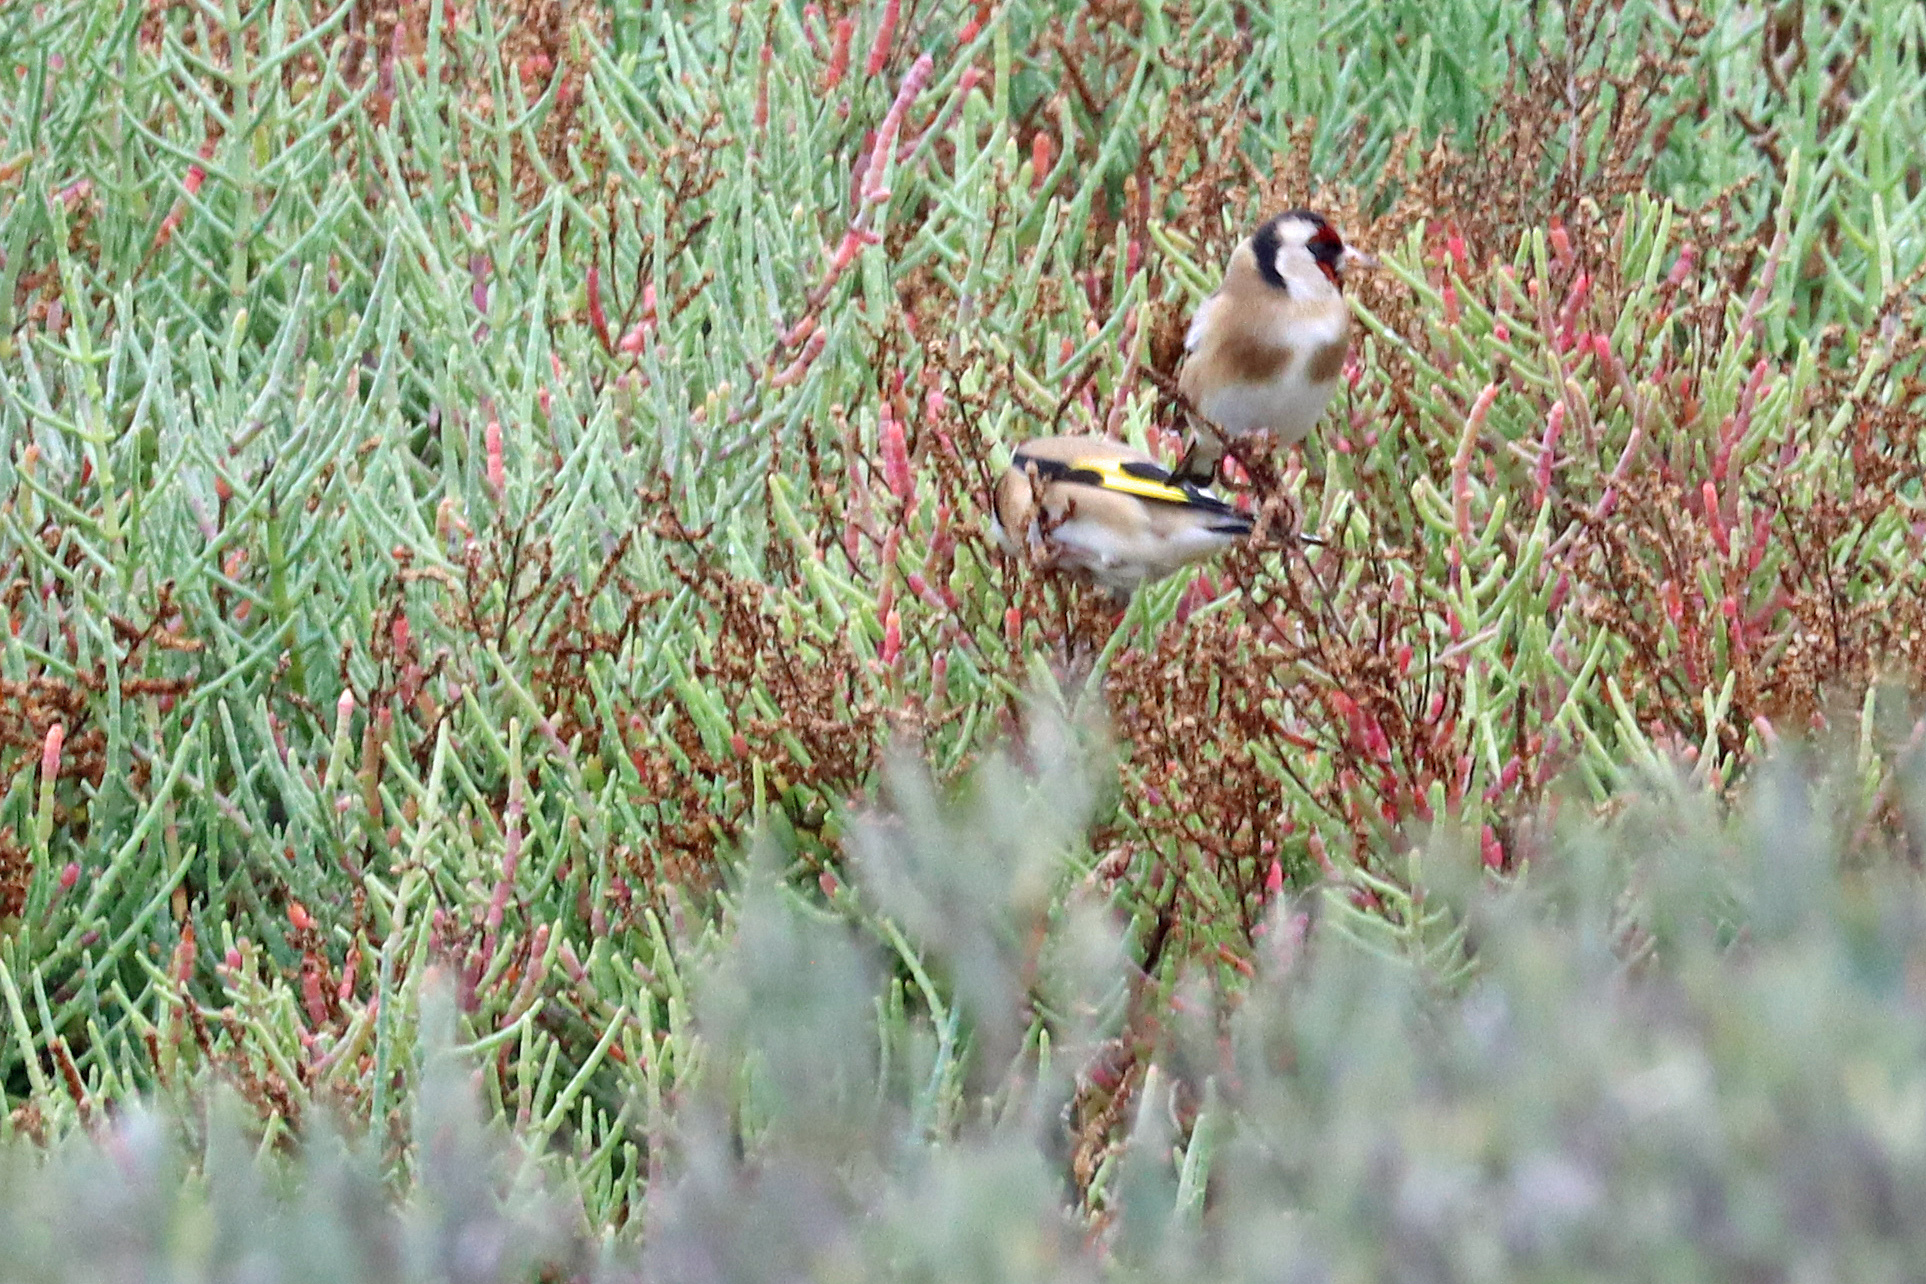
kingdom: Animalia
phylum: Chordata
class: Aves
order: Passeriformes
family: Fringillidae
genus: Carduelis
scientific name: Carduelis carduelis
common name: European goldfinch
